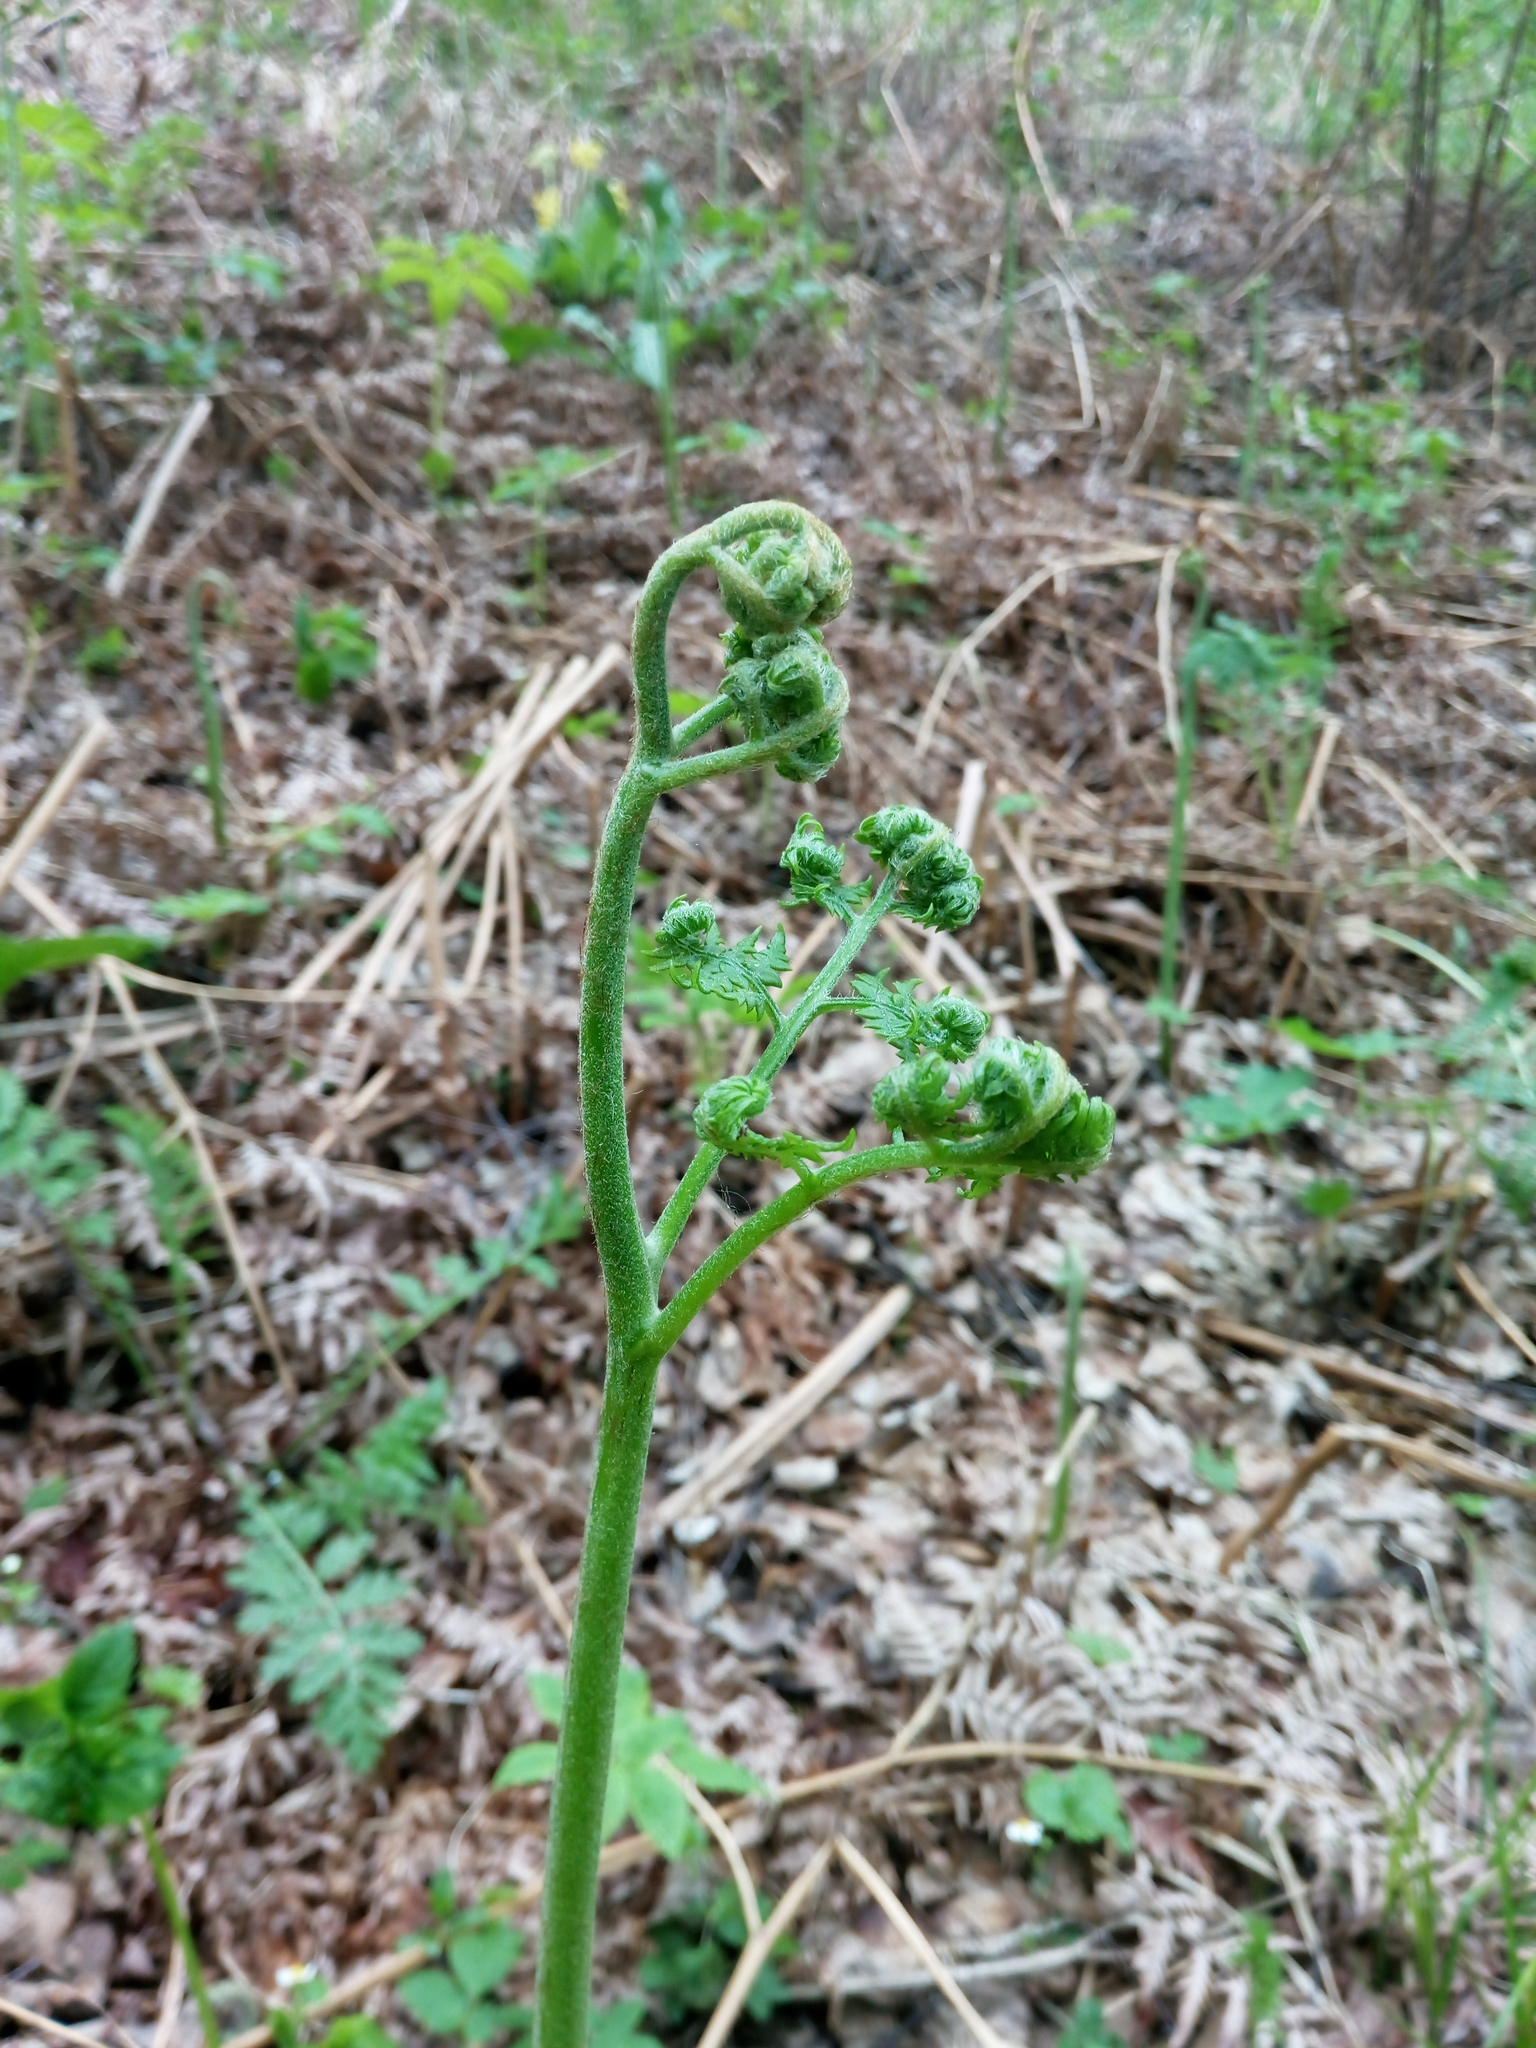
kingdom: Plantae
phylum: Tracheophyta
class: Polypodiopsida
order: Polypodiales
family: Dennstaedtiaceae
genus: Pteridium
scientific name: Pteridium aquilinum
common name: Bracken
